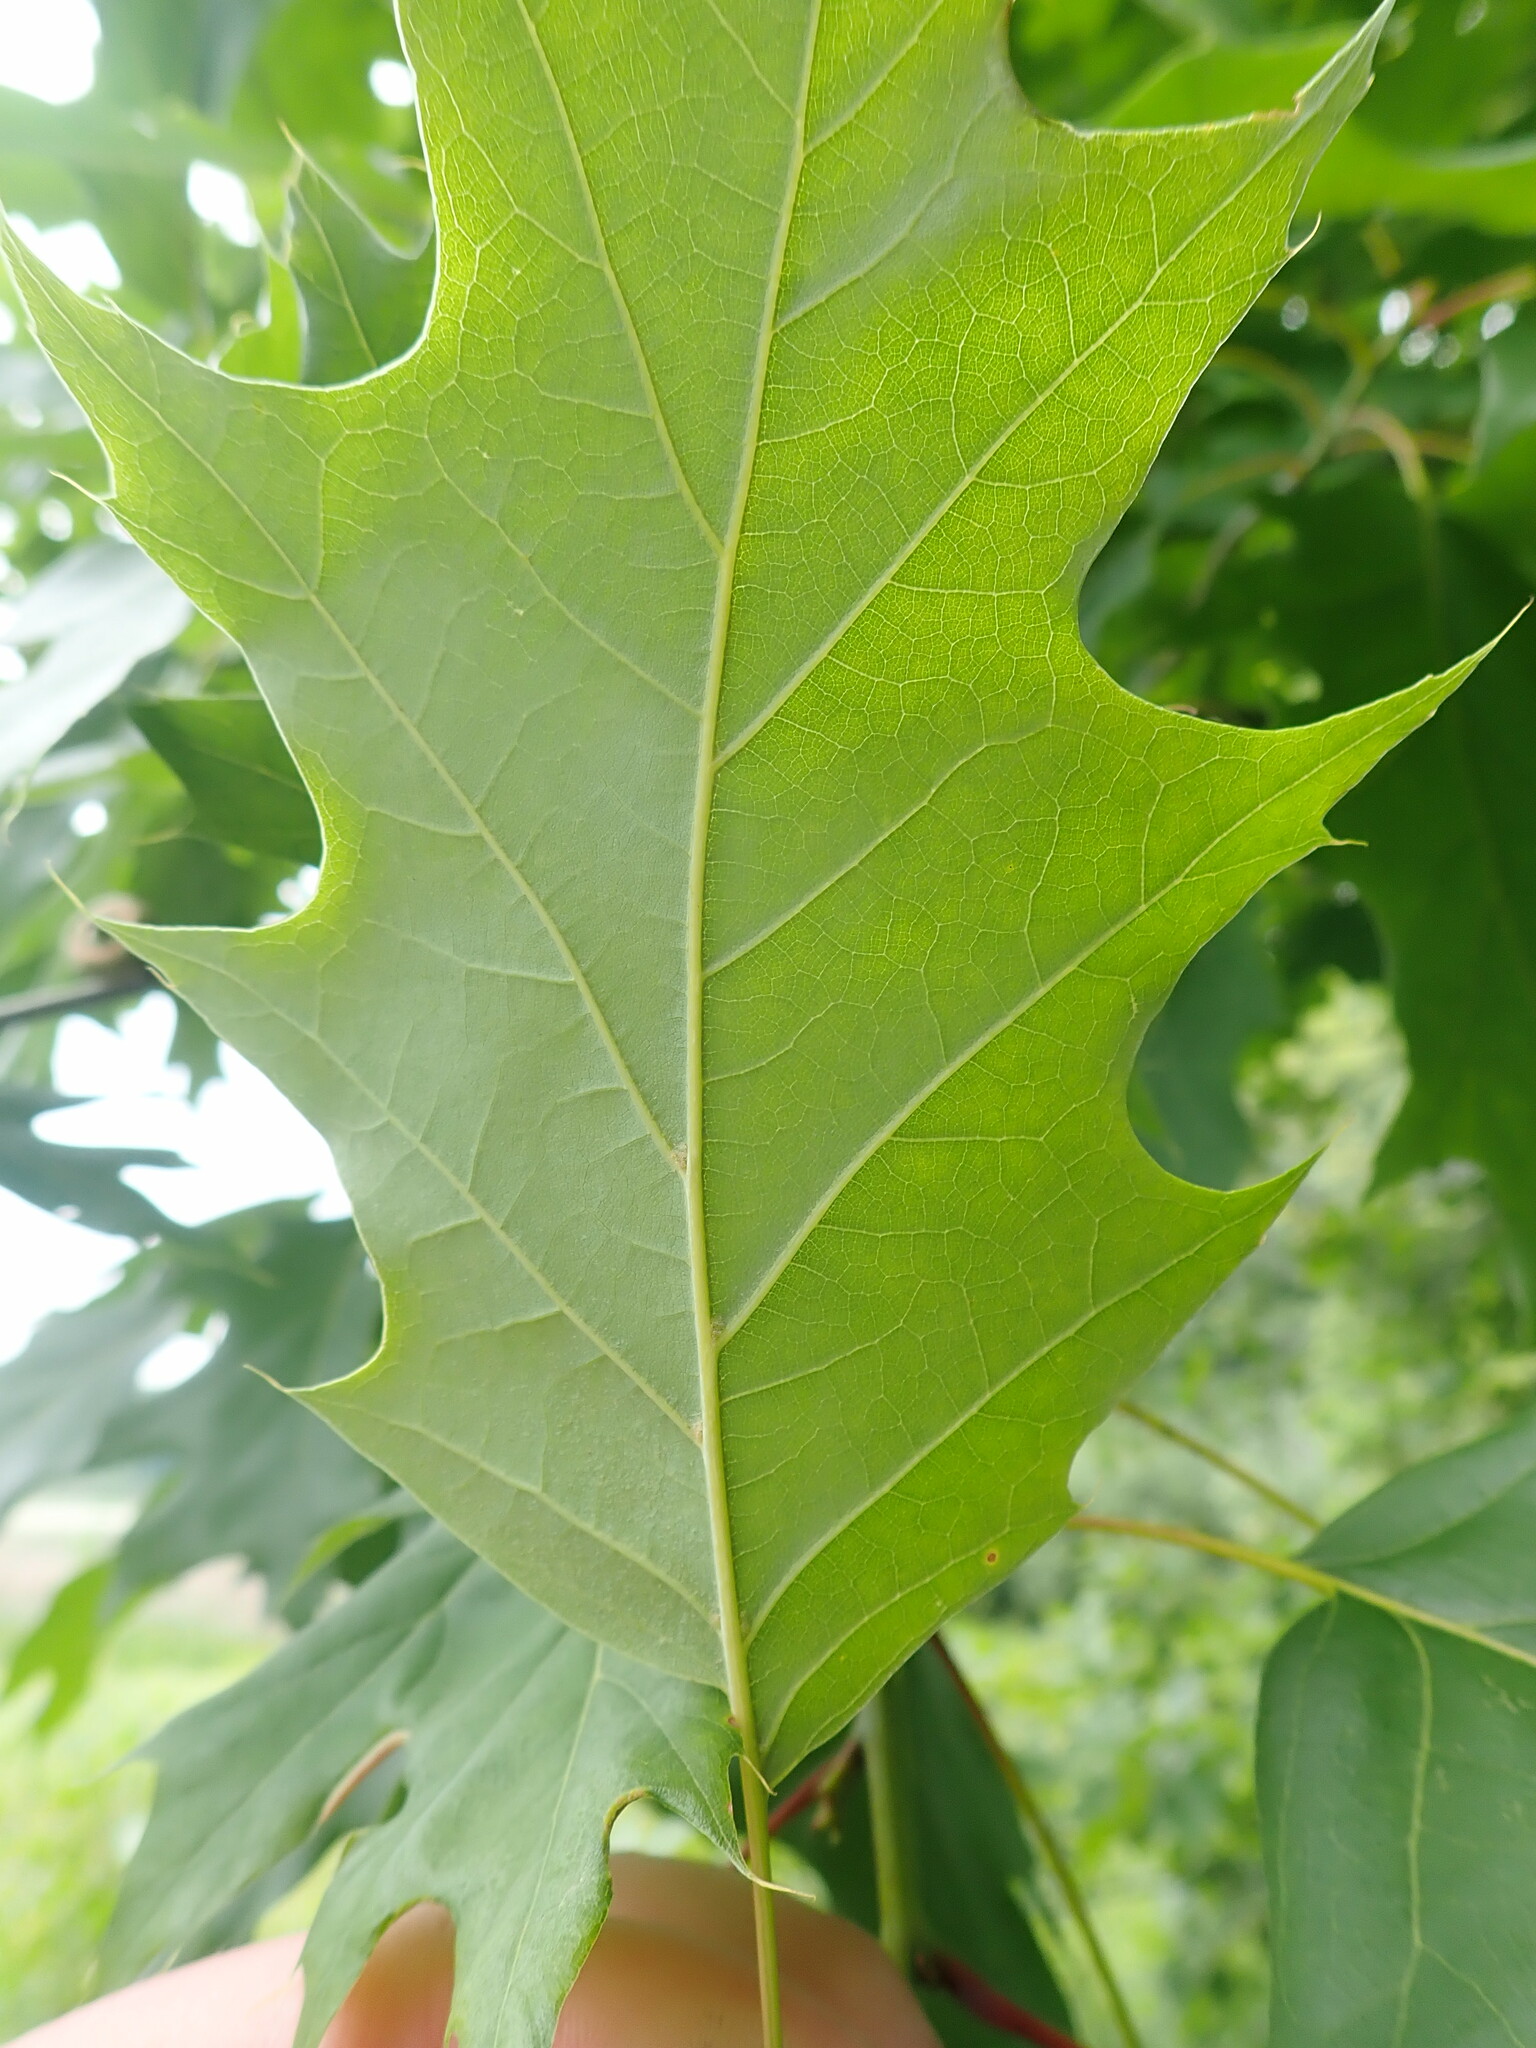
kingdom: Plantae
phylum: Tracheophyta
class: Magnoliopsida
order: Fagales
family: Fagaceae
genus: Quercus
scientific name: Quercus rubra
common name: Red oak
